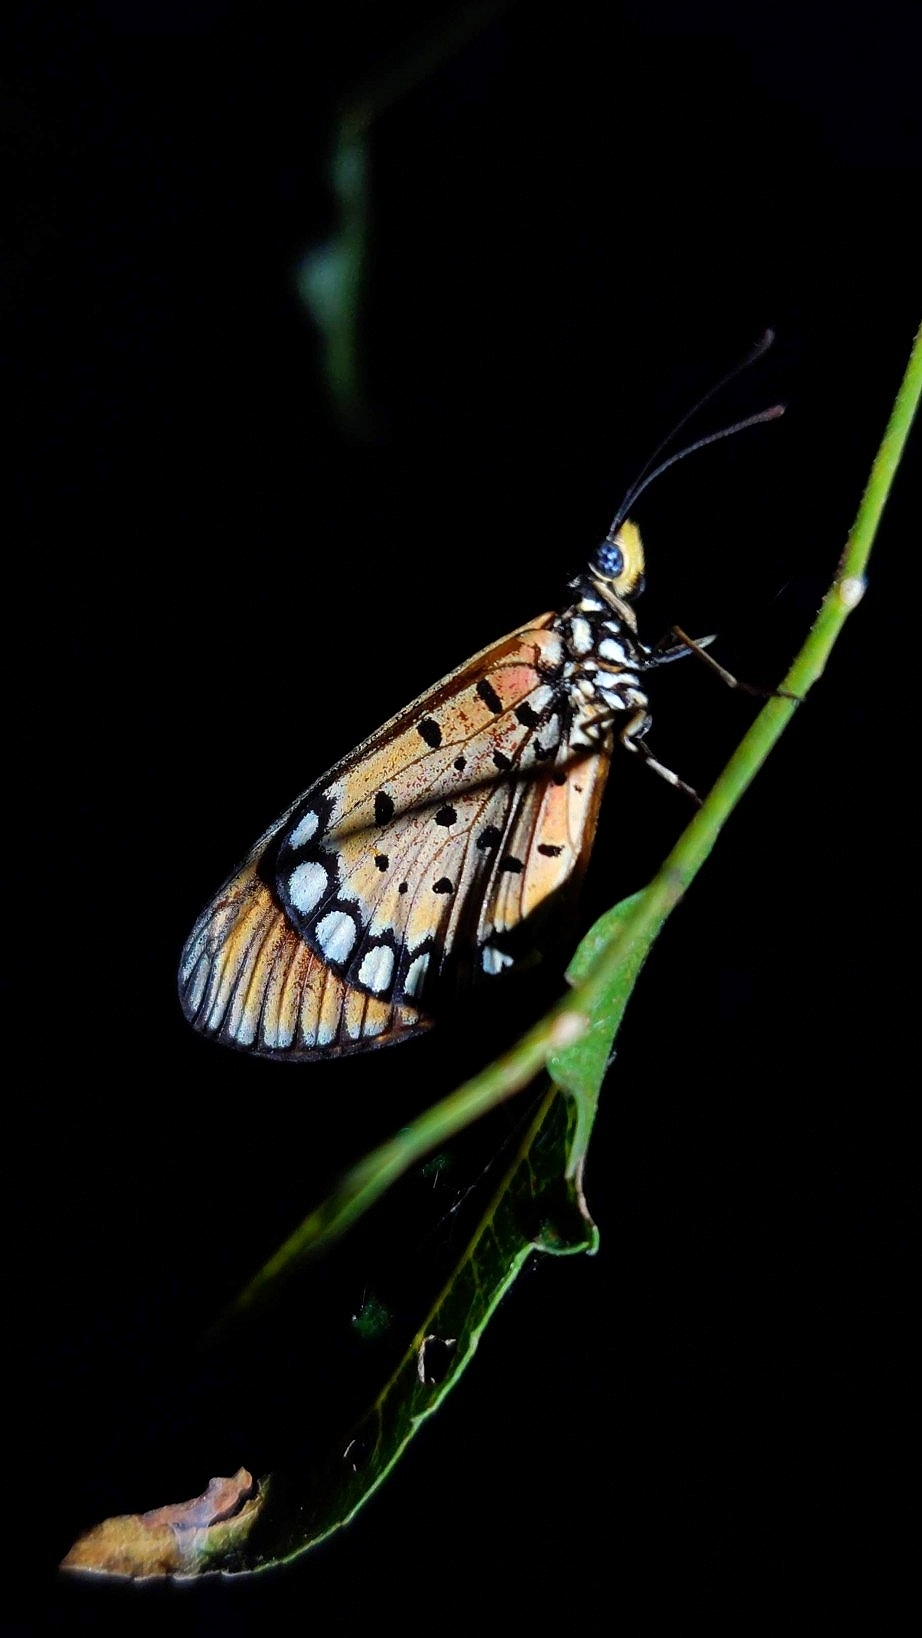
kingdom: Animalia
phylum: Arthropoda
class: Insecta
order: Lepidoptera
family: Nymphalidae
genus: Acraea
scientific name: Acraea terpsicore
